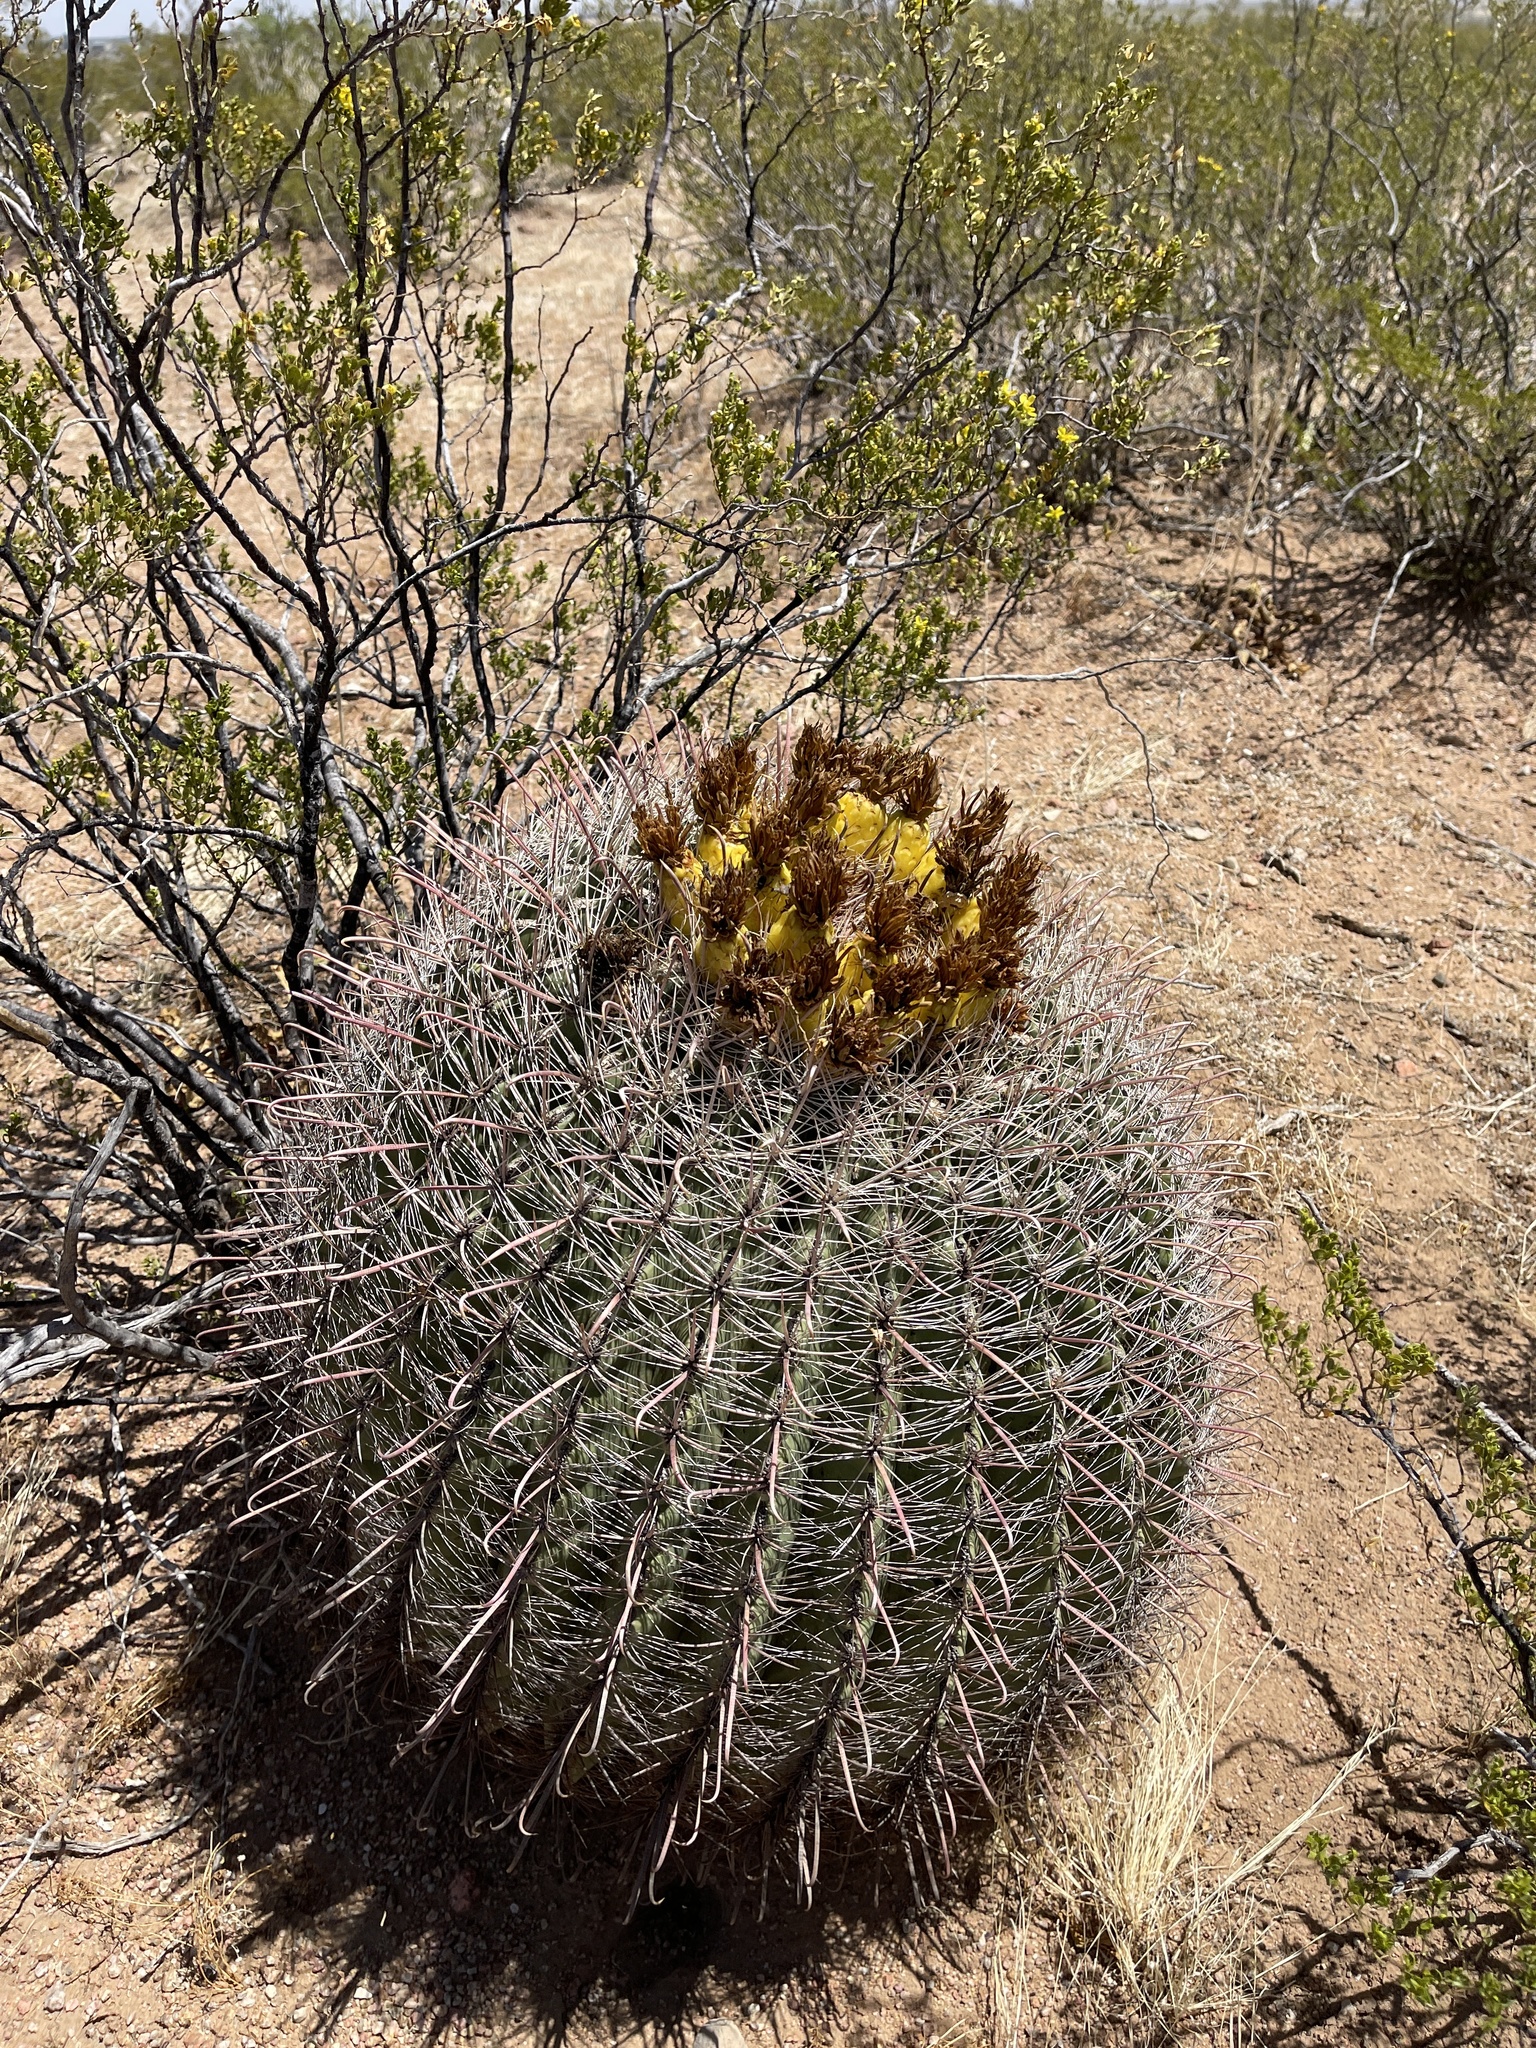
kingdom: Plantae
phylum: Tracheophyta
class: Magnoliopsida
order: Caryophyllales
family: Cactaceae
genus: Ferocactus
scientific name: Ferocactus wislizeni
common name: Candy barrel cactus
